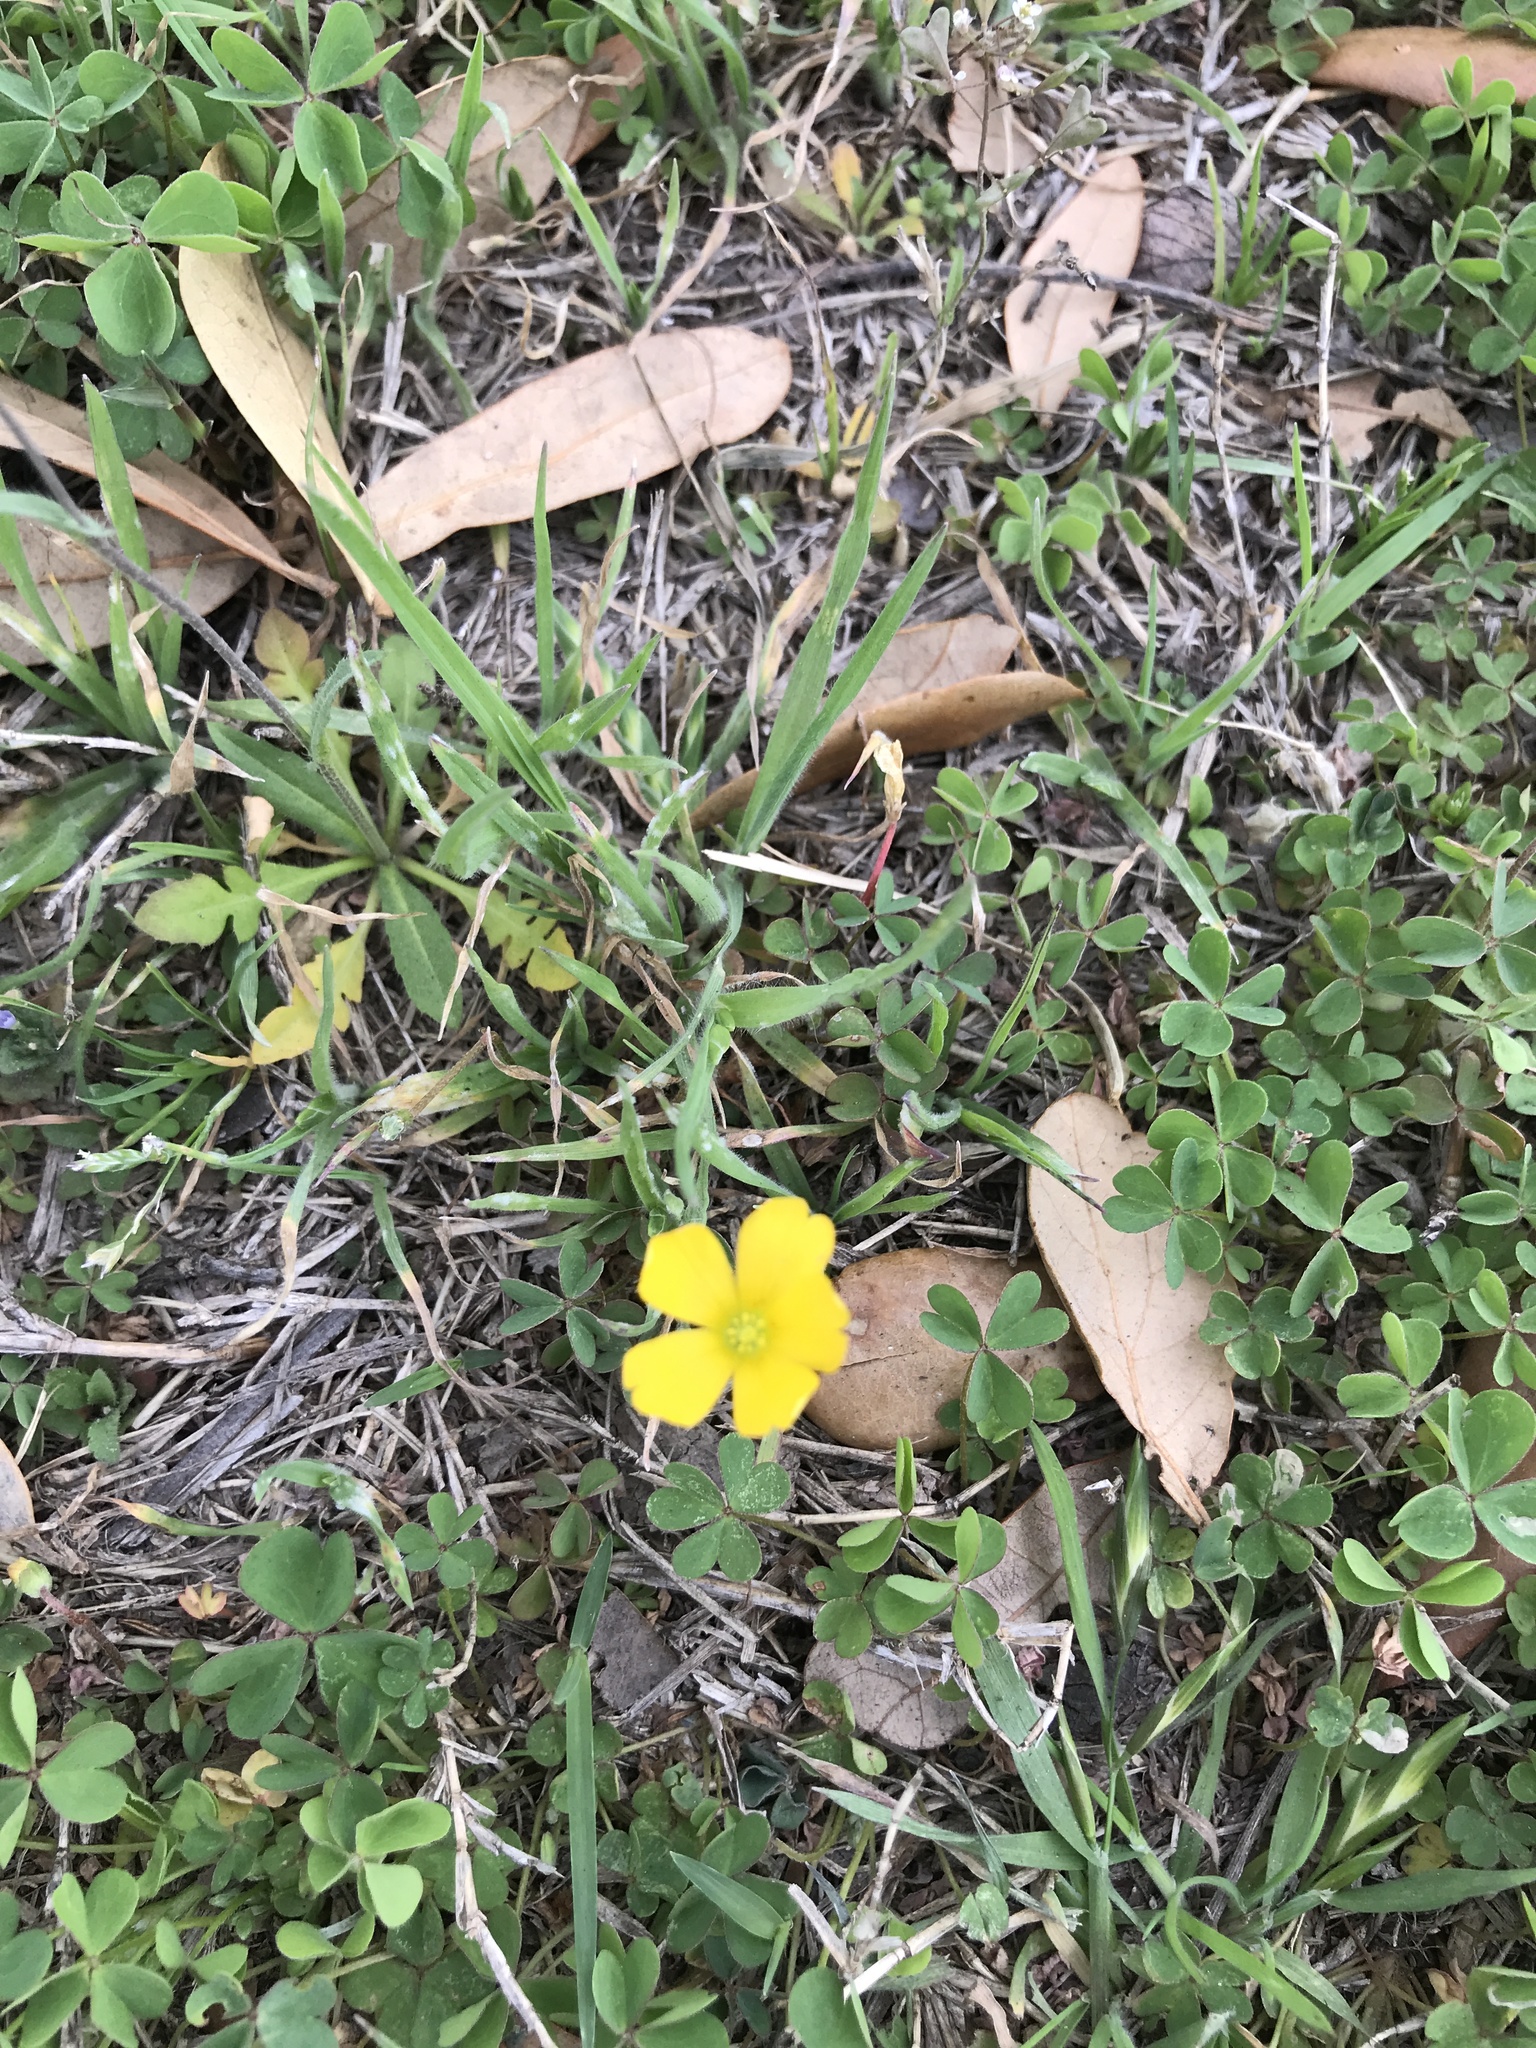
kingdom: Plantae
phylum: Tracheophyta
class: Magnoliopsida
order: Oxalidales
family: Oxalidaceae
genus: Oxalis
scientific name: Oxalis corniculata
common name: Procumbent yellow-sorrel
